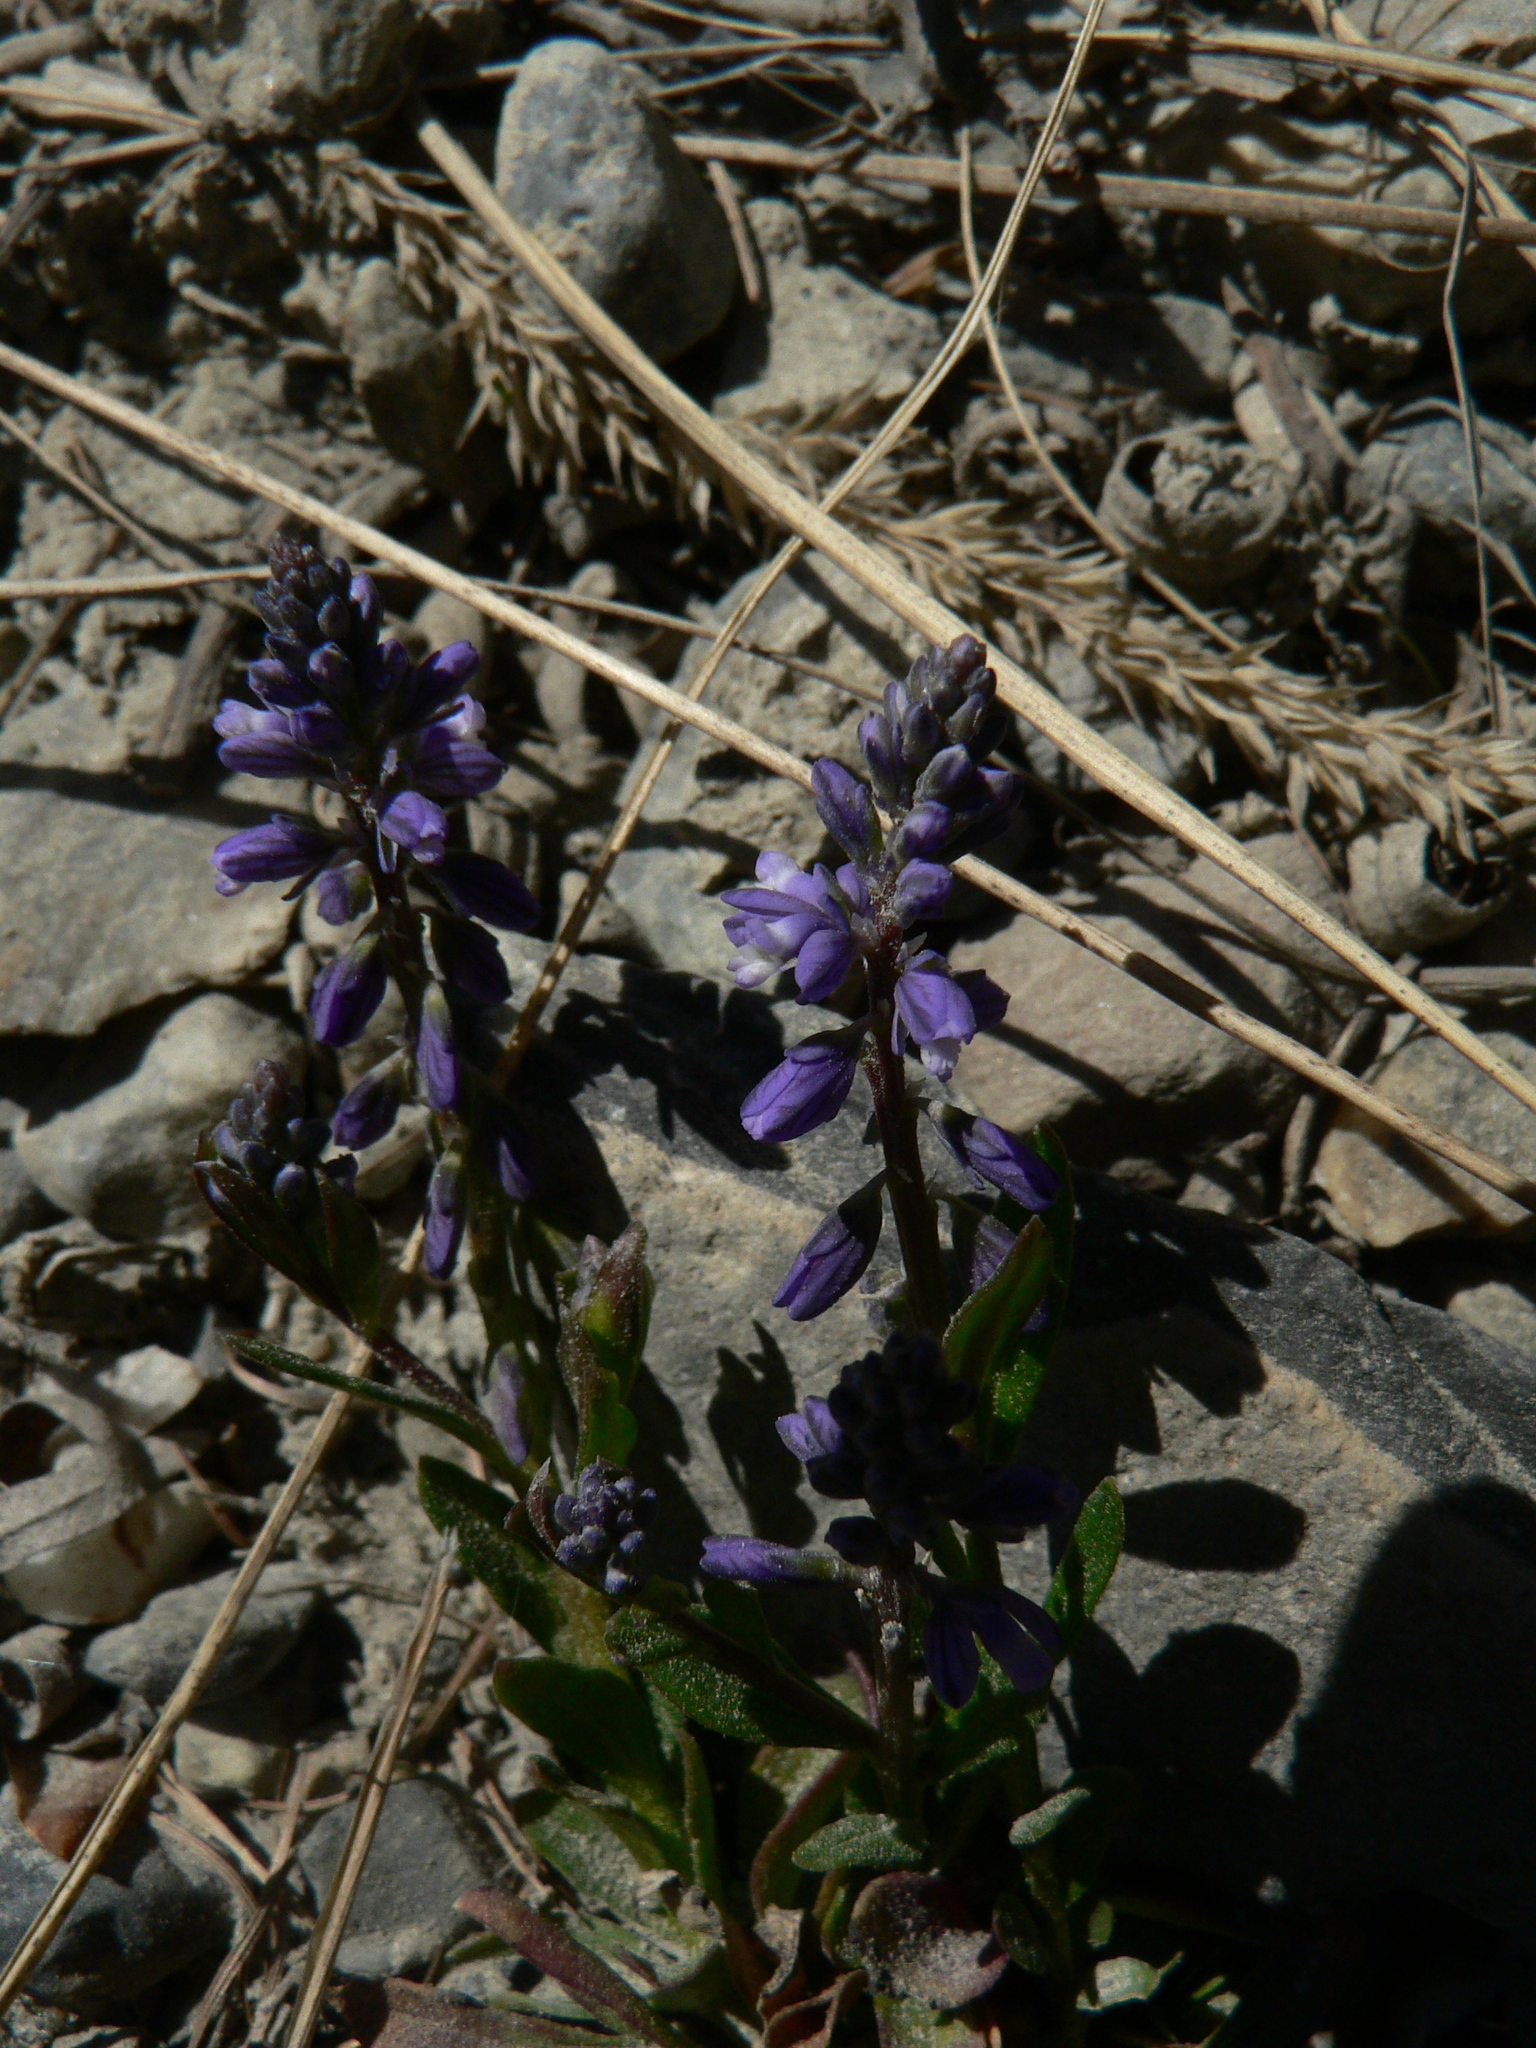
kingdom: Plantae
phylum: Tracheophyta
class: Magnoliopsida
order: Fabales
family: Polygalaceae
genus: Polygala
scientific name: Polygala alpestris
